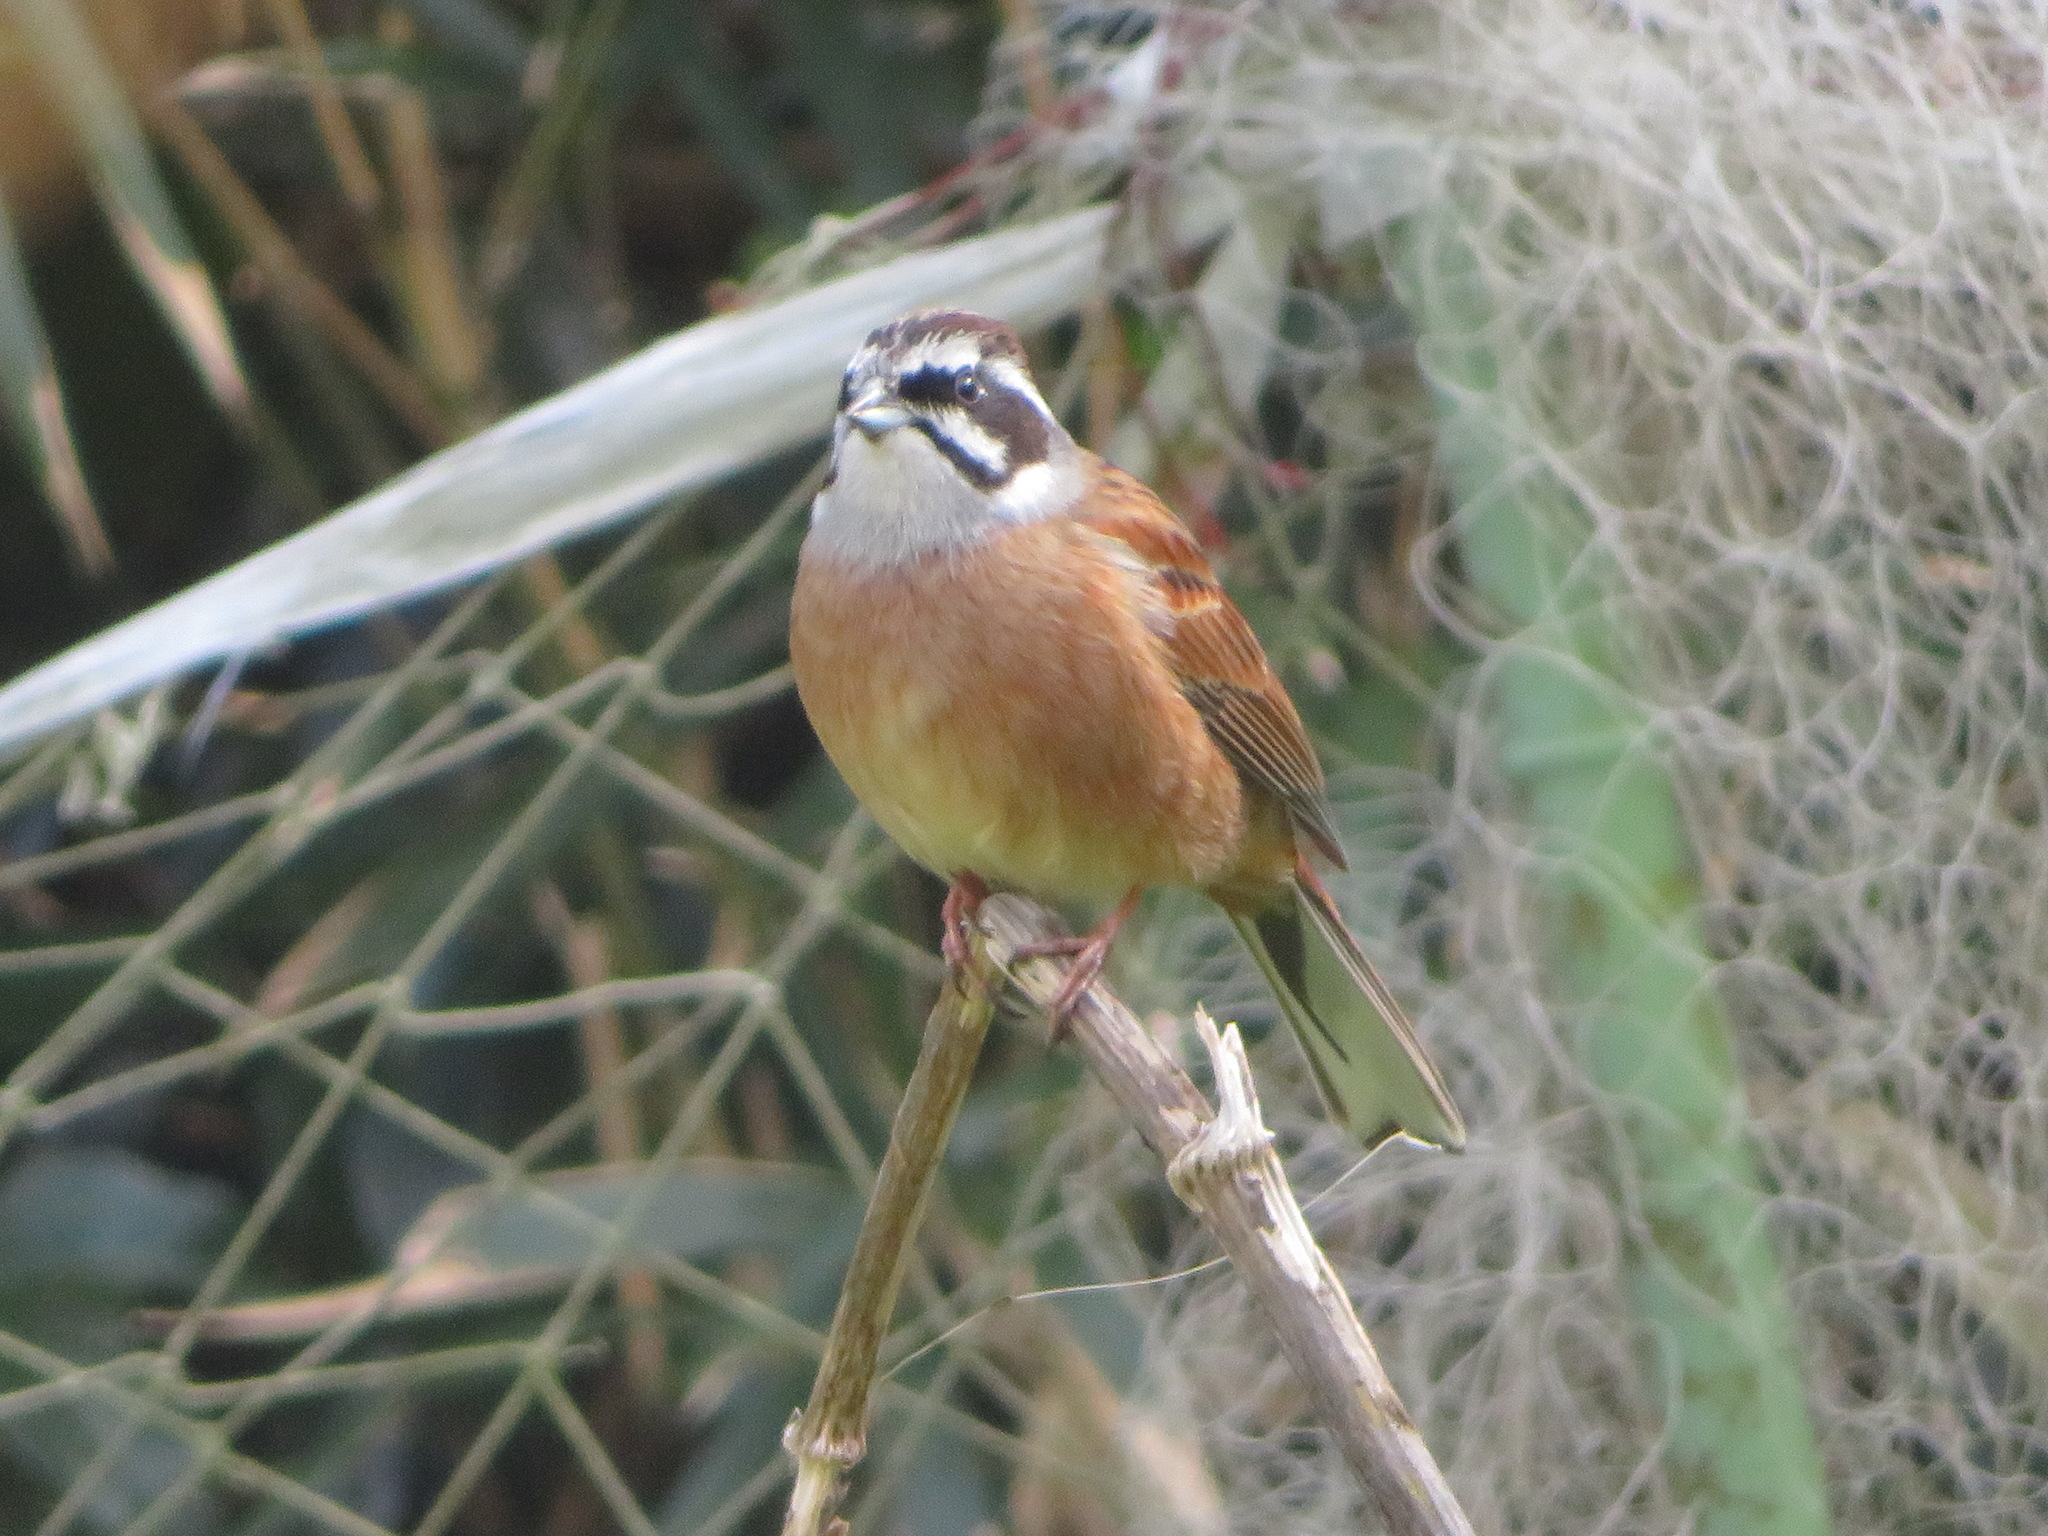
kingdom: Animalia
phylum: Chordata
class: Aves
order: Passeriformes
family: Emberizidae
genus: Emberiza
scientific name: Emberiza cioides
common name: Meadow bunting
